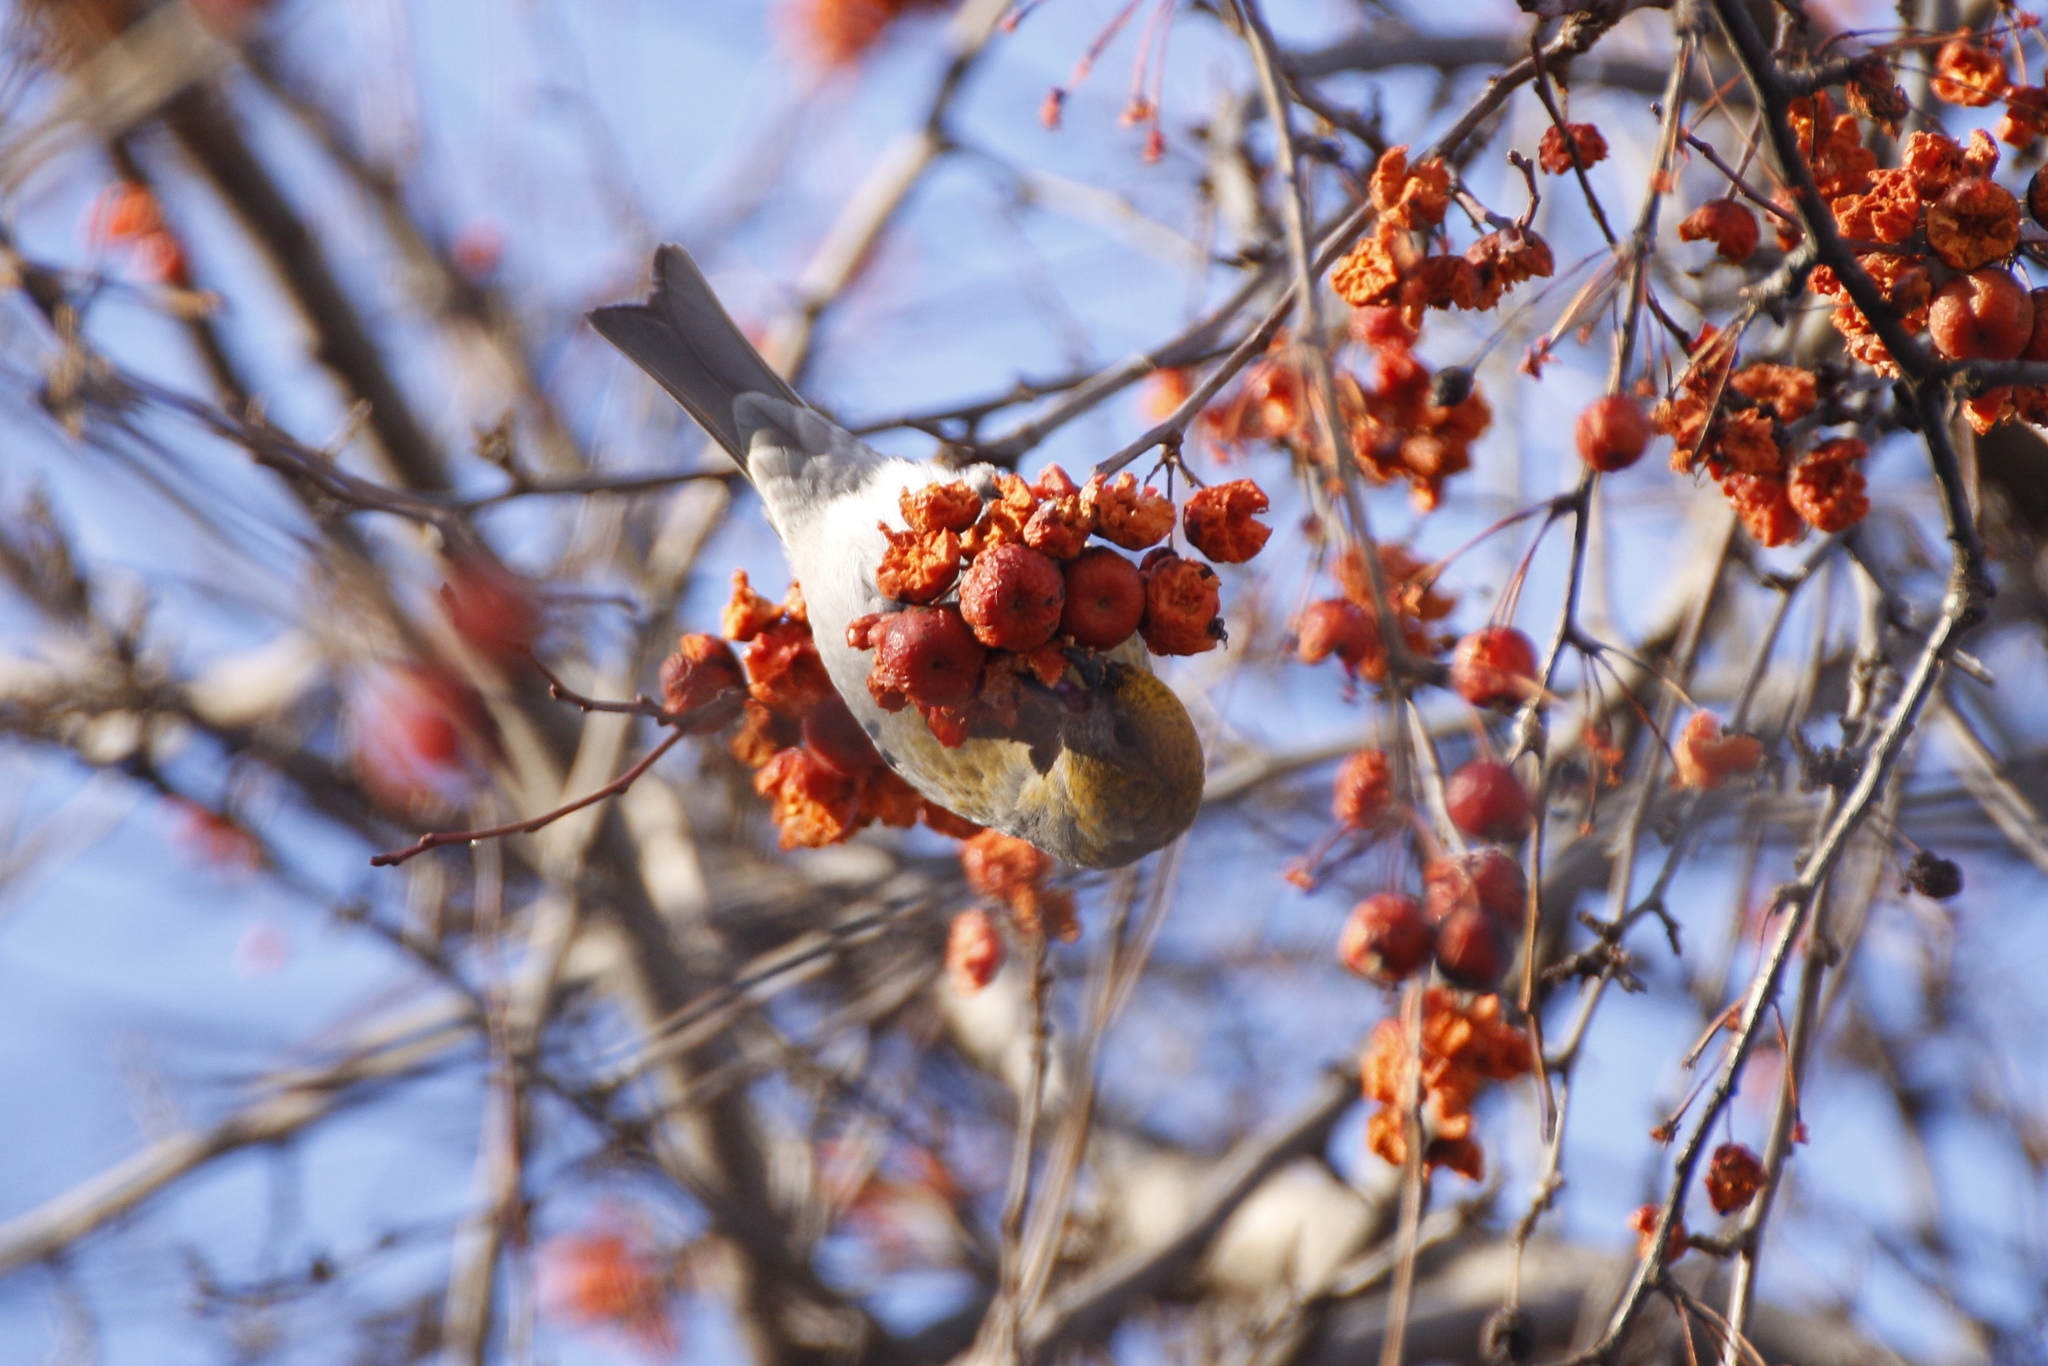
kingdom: Animalia
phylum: Chordata
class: Aves
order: Passeriformes
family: Fringillidae
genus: Pinicola
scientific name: Pinicola enucleator
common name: Pine grosbeak
